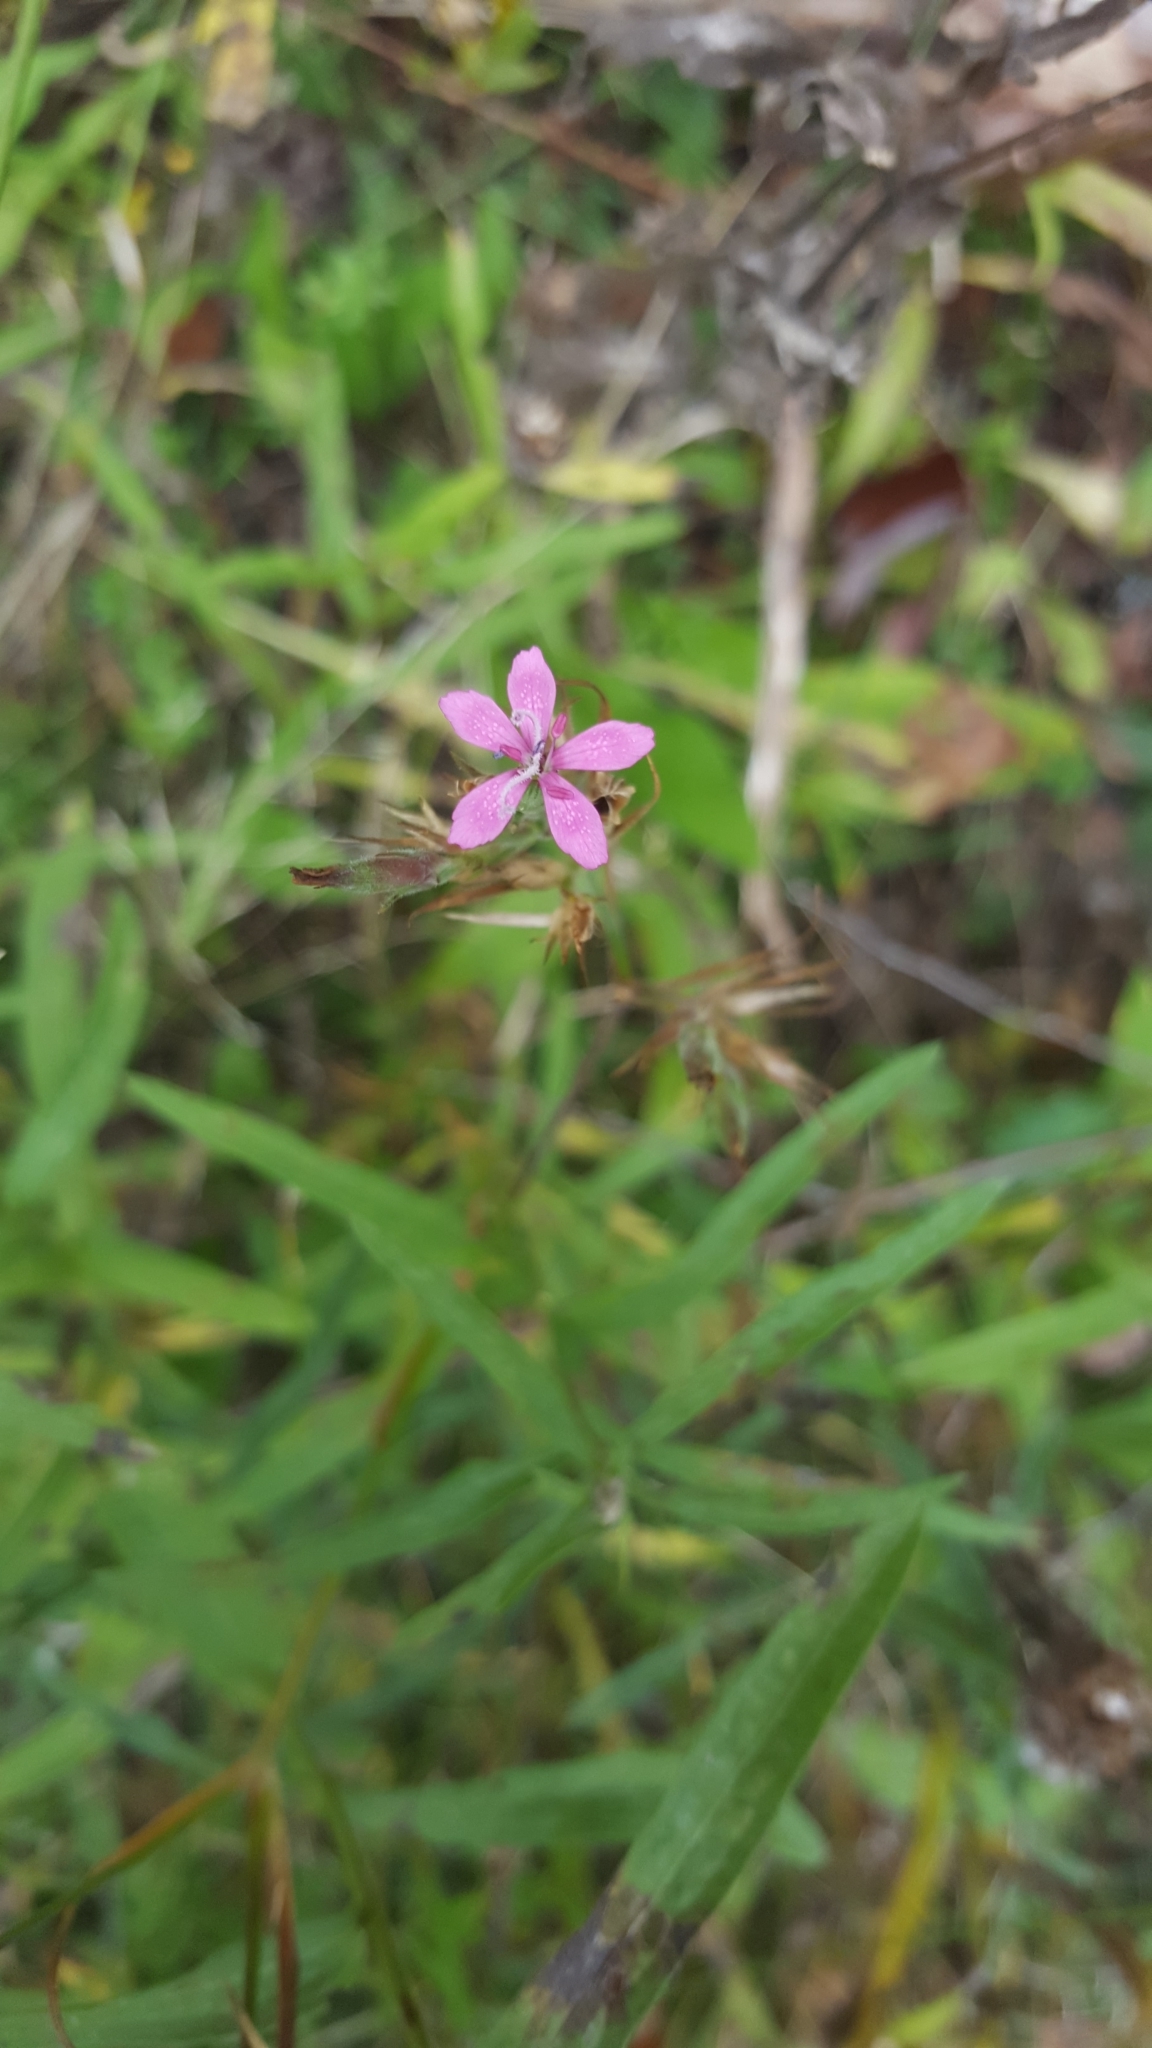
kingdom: Plantae
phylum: Tracheophyta
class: Magnoliopsida
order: Caryophyllales
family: Caryophyllaceae
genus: Dianthus
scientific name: Dianthus armeria
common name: Deptford pink
